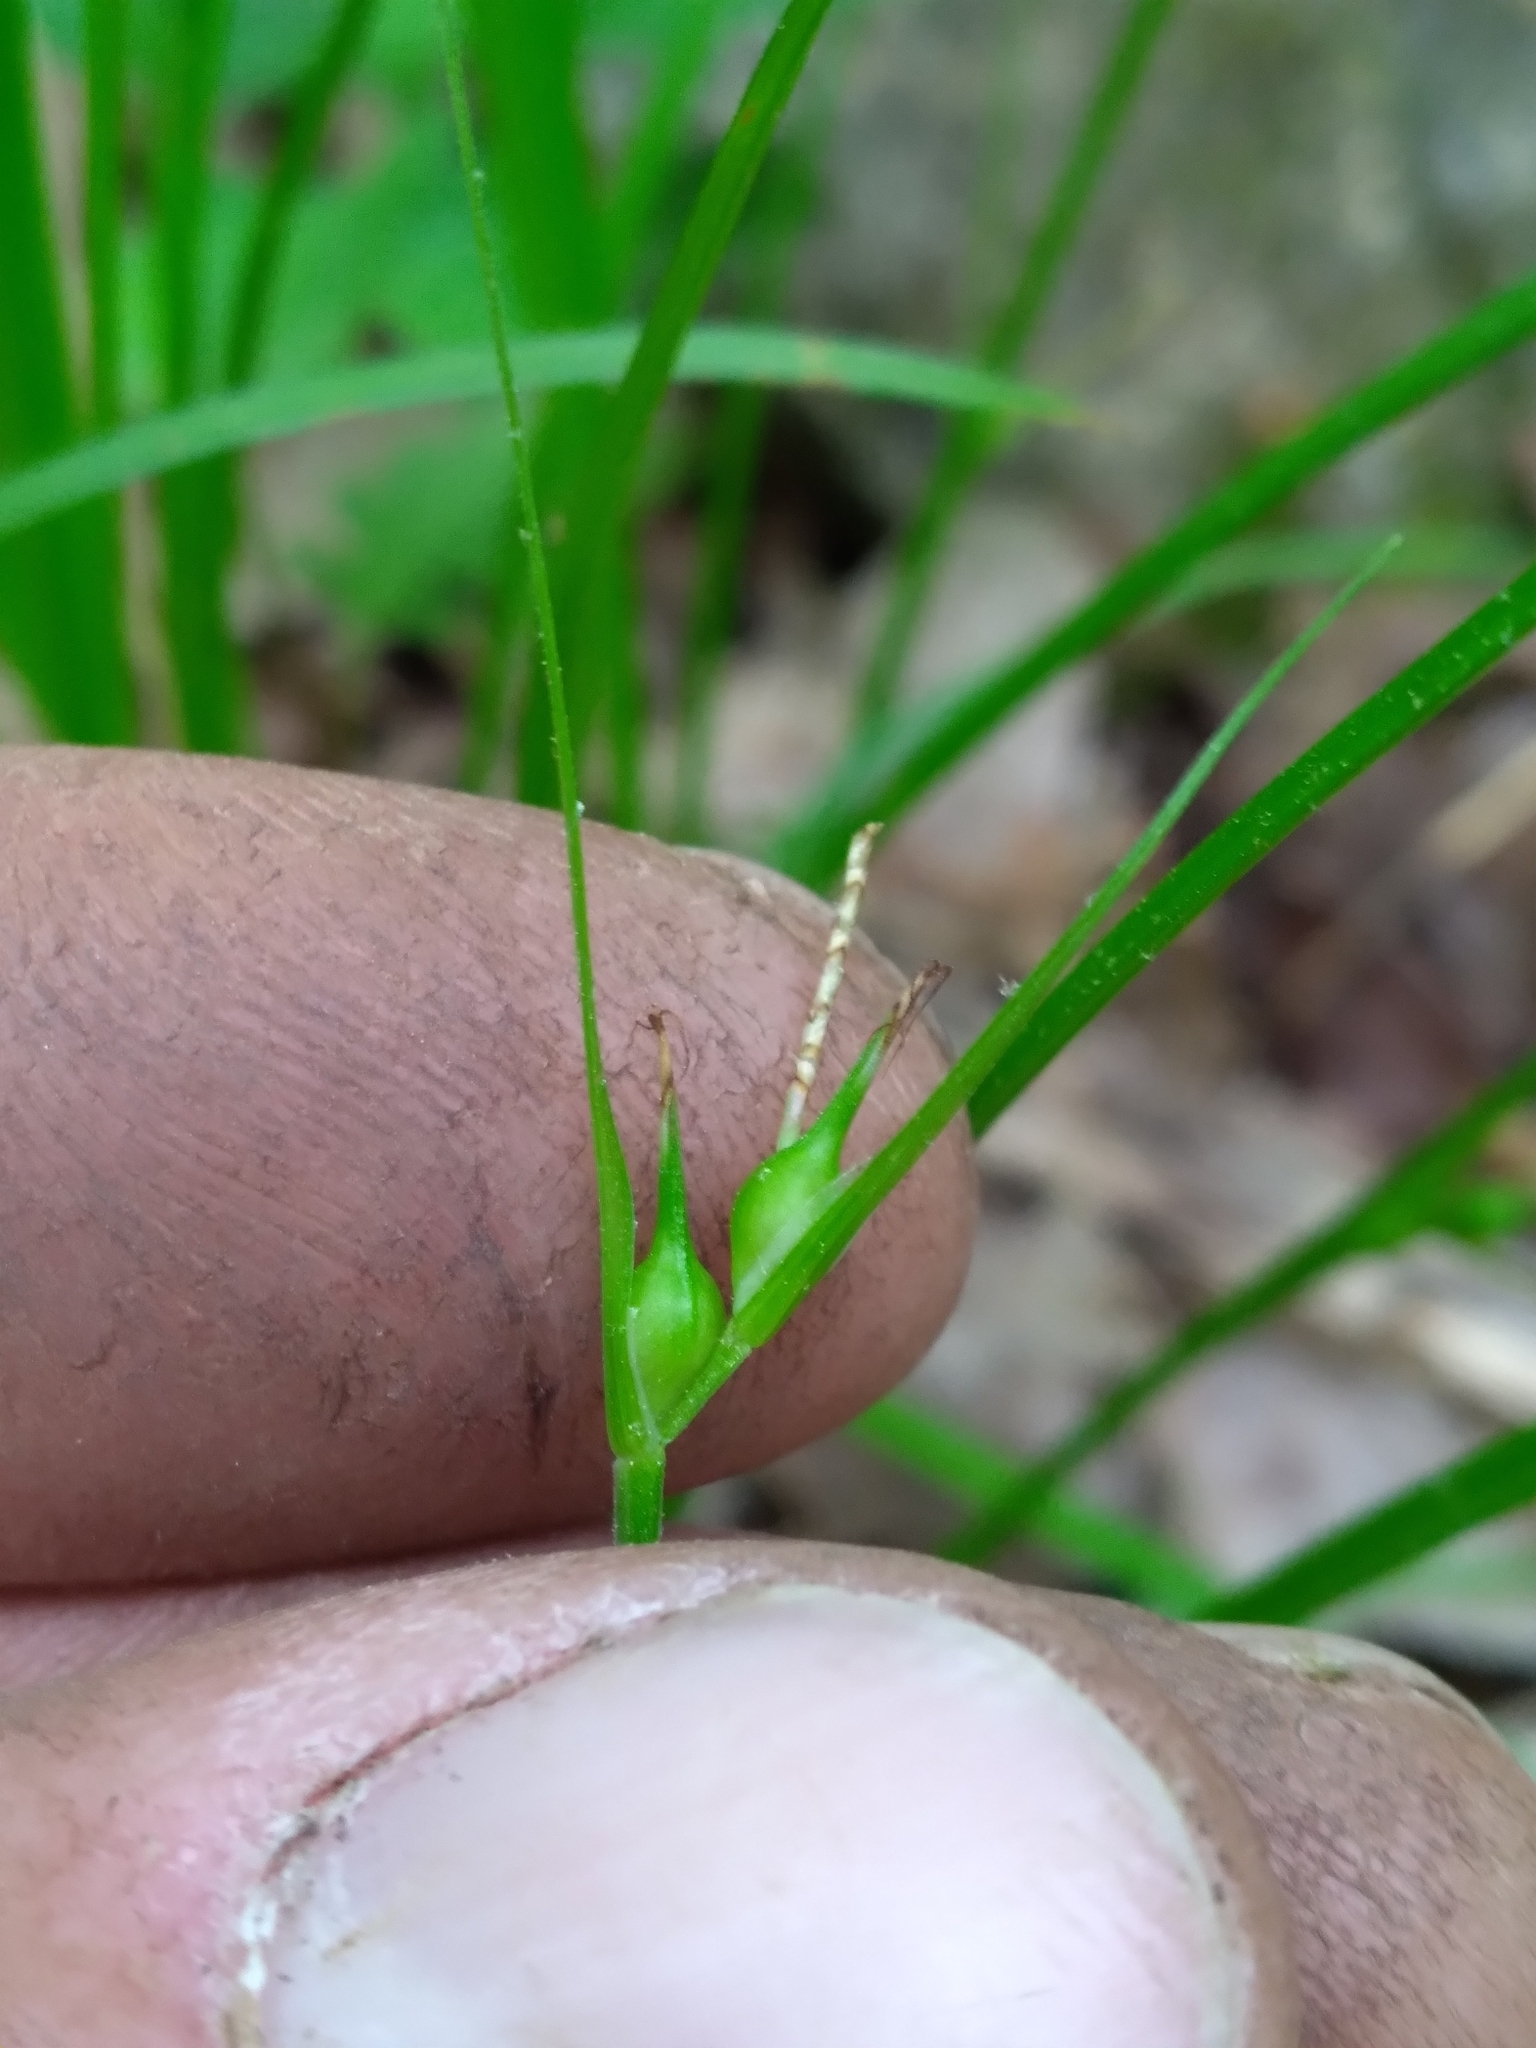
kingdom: Plantae
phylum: Tracheophyta
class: Liliopsida
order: Poales
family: Cyperaceae
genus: Carex
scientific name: Carex jamesii
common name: Grass sedge
